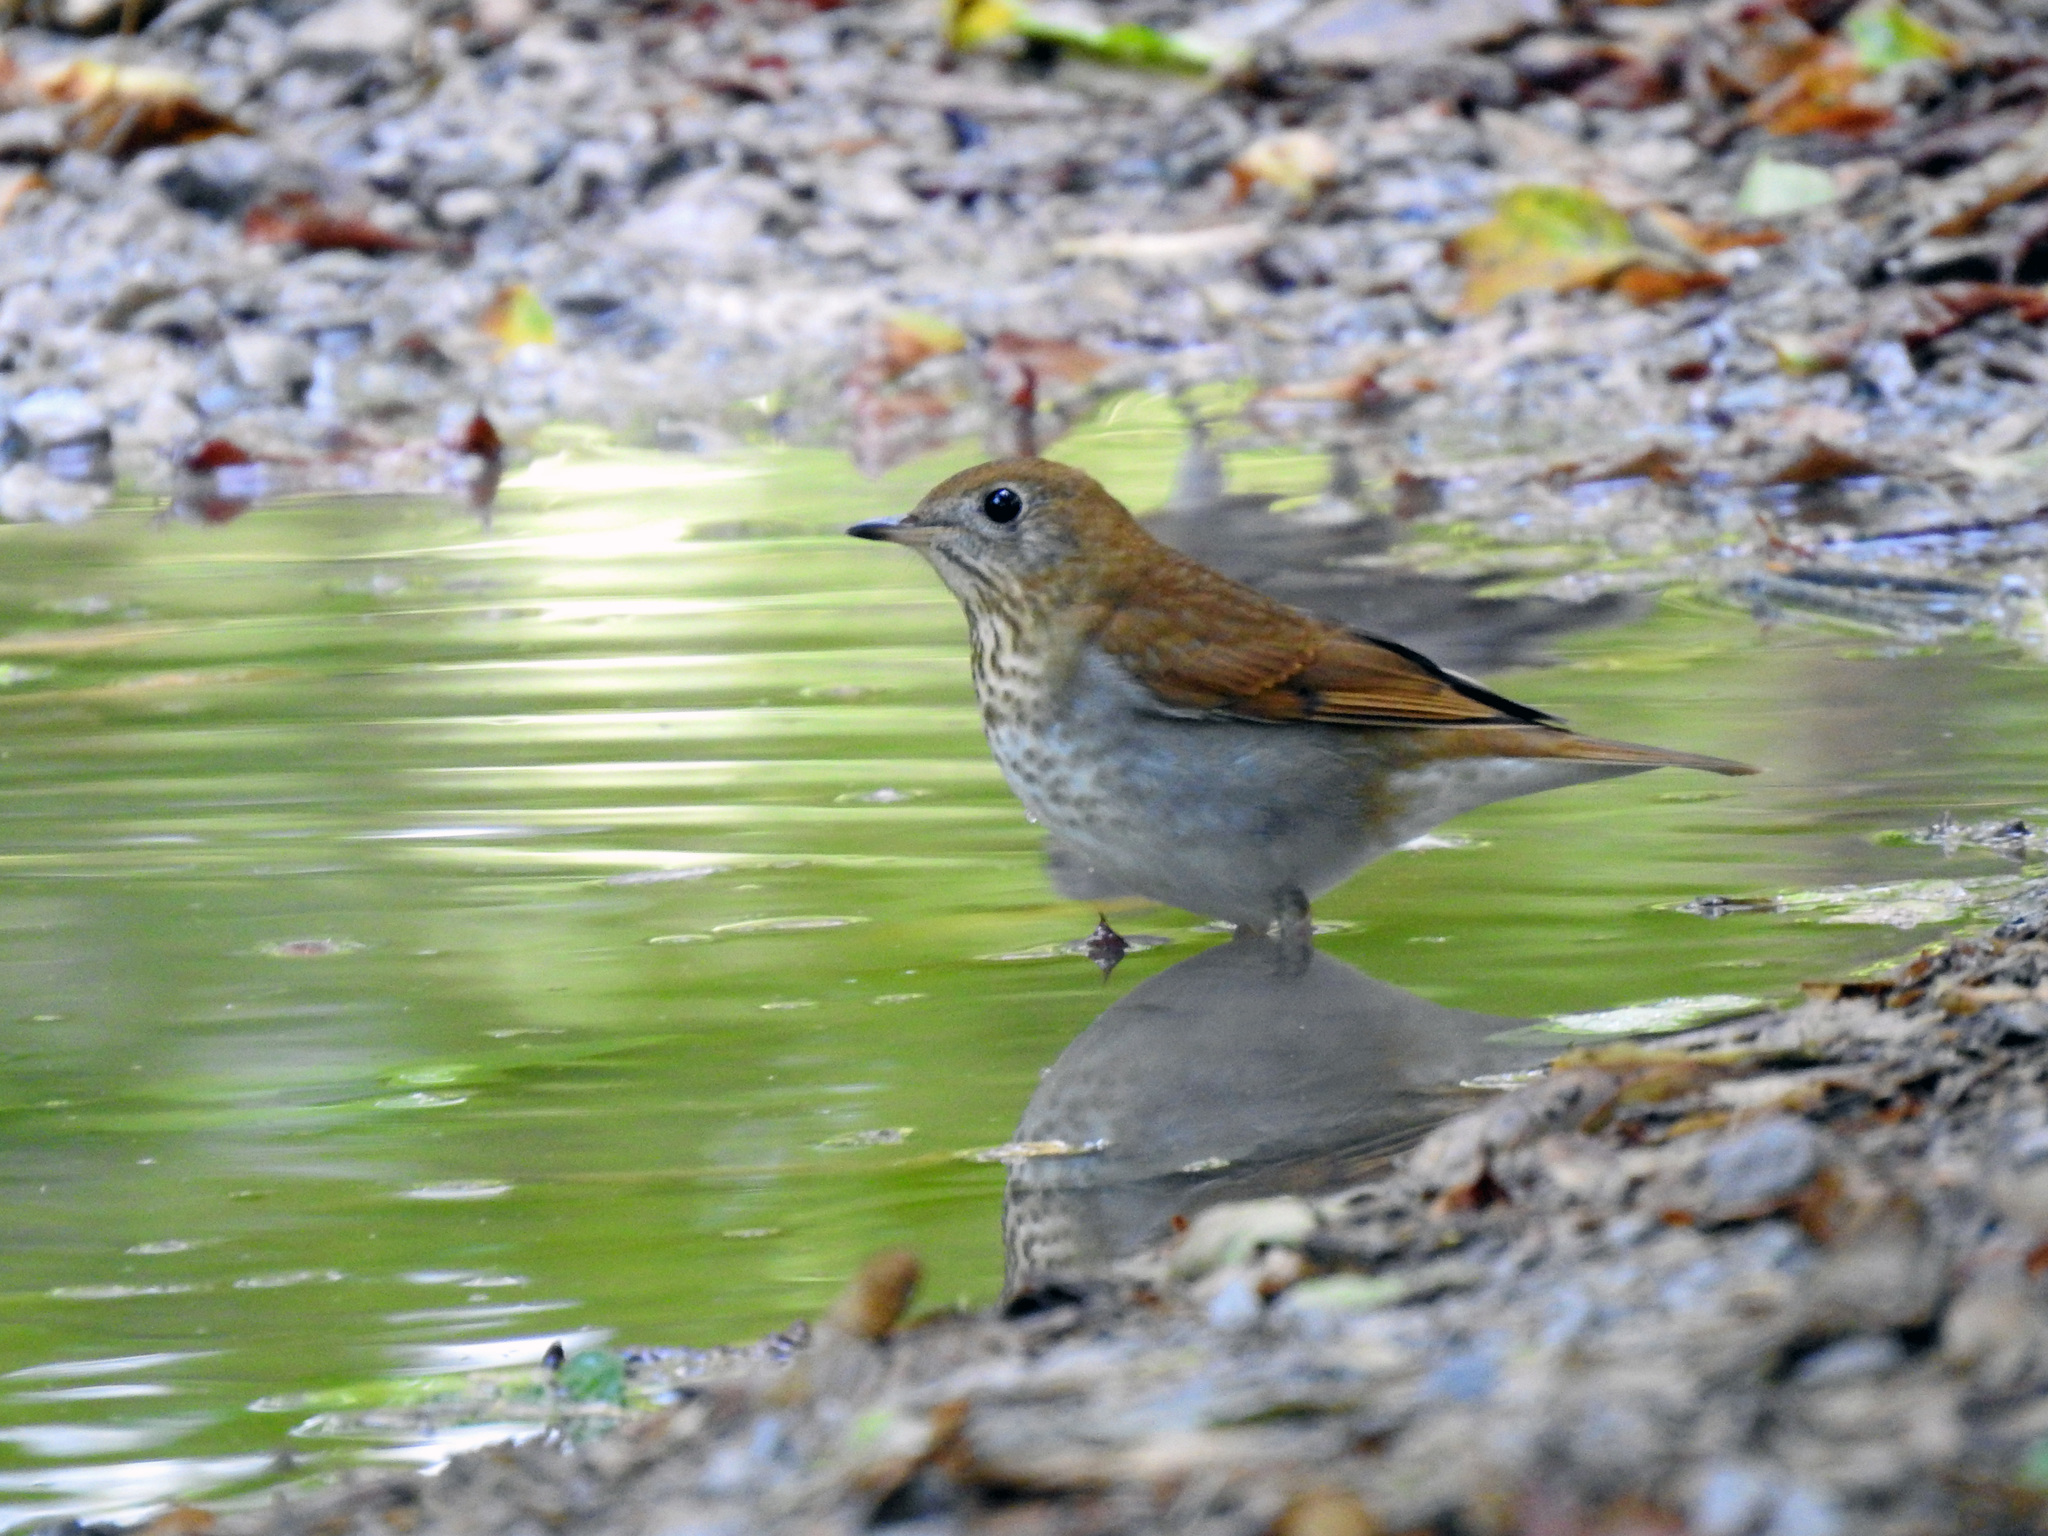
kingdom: Animalia
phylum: Chordata
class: Aves
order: Passeriformes
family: Turdidae
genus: Catharus
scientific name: Catharus fuscescens
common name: Veery
